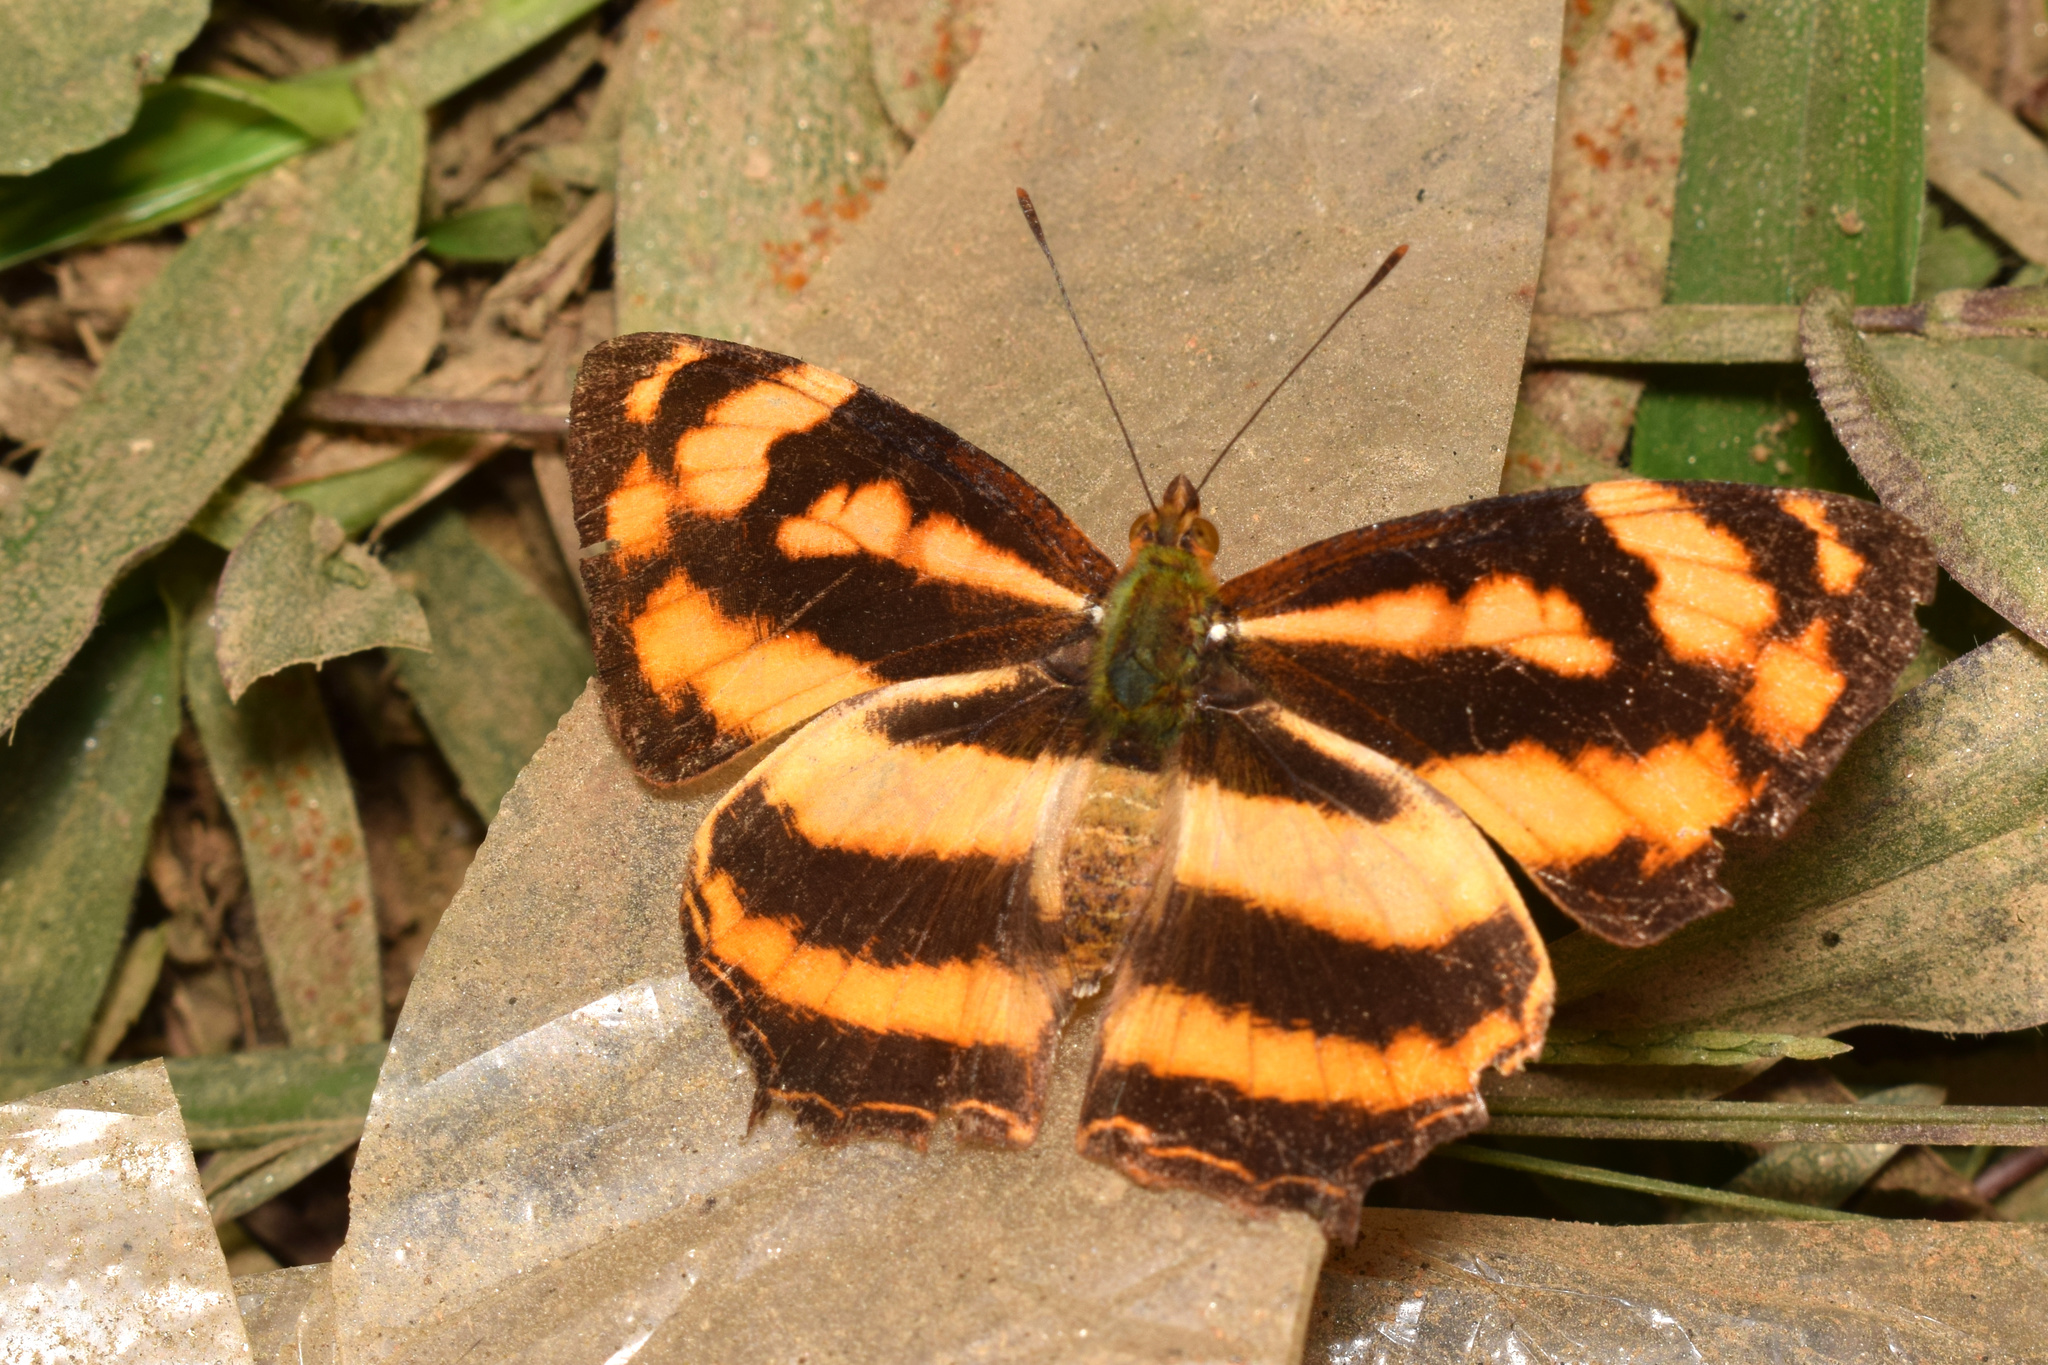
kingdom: Animalia
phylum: Arthropoda
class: Insecta
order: Lepidoptera
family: Nymphalidae
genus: Symbrenthia
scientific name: Symbrenthia hypselis
